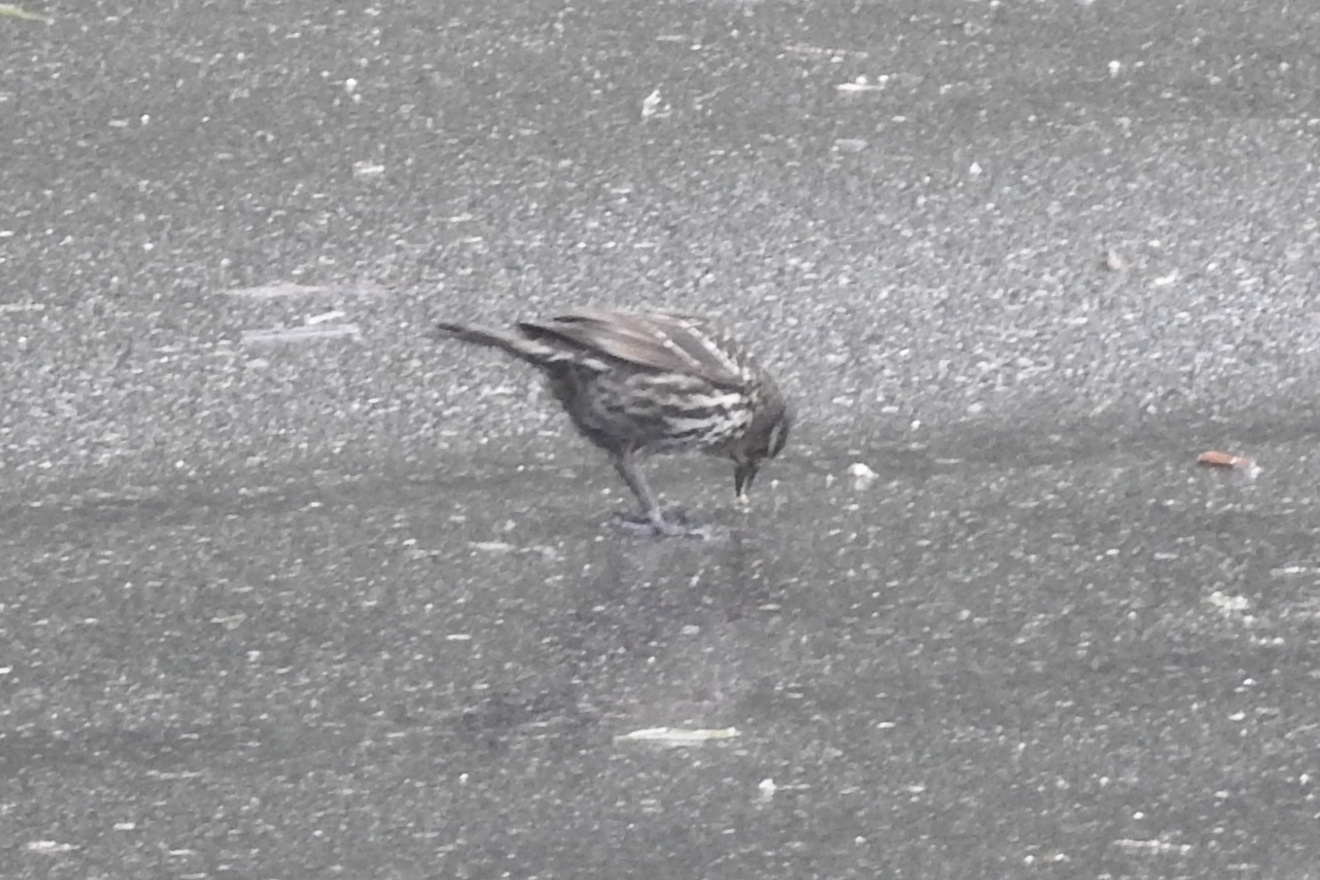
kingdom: Animalia
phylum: Chordata
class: Aves
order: Passeriformes
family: Icteridae
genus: Agelaius
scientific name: Agelaius phoeniceus
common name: Red-winged blackbird
